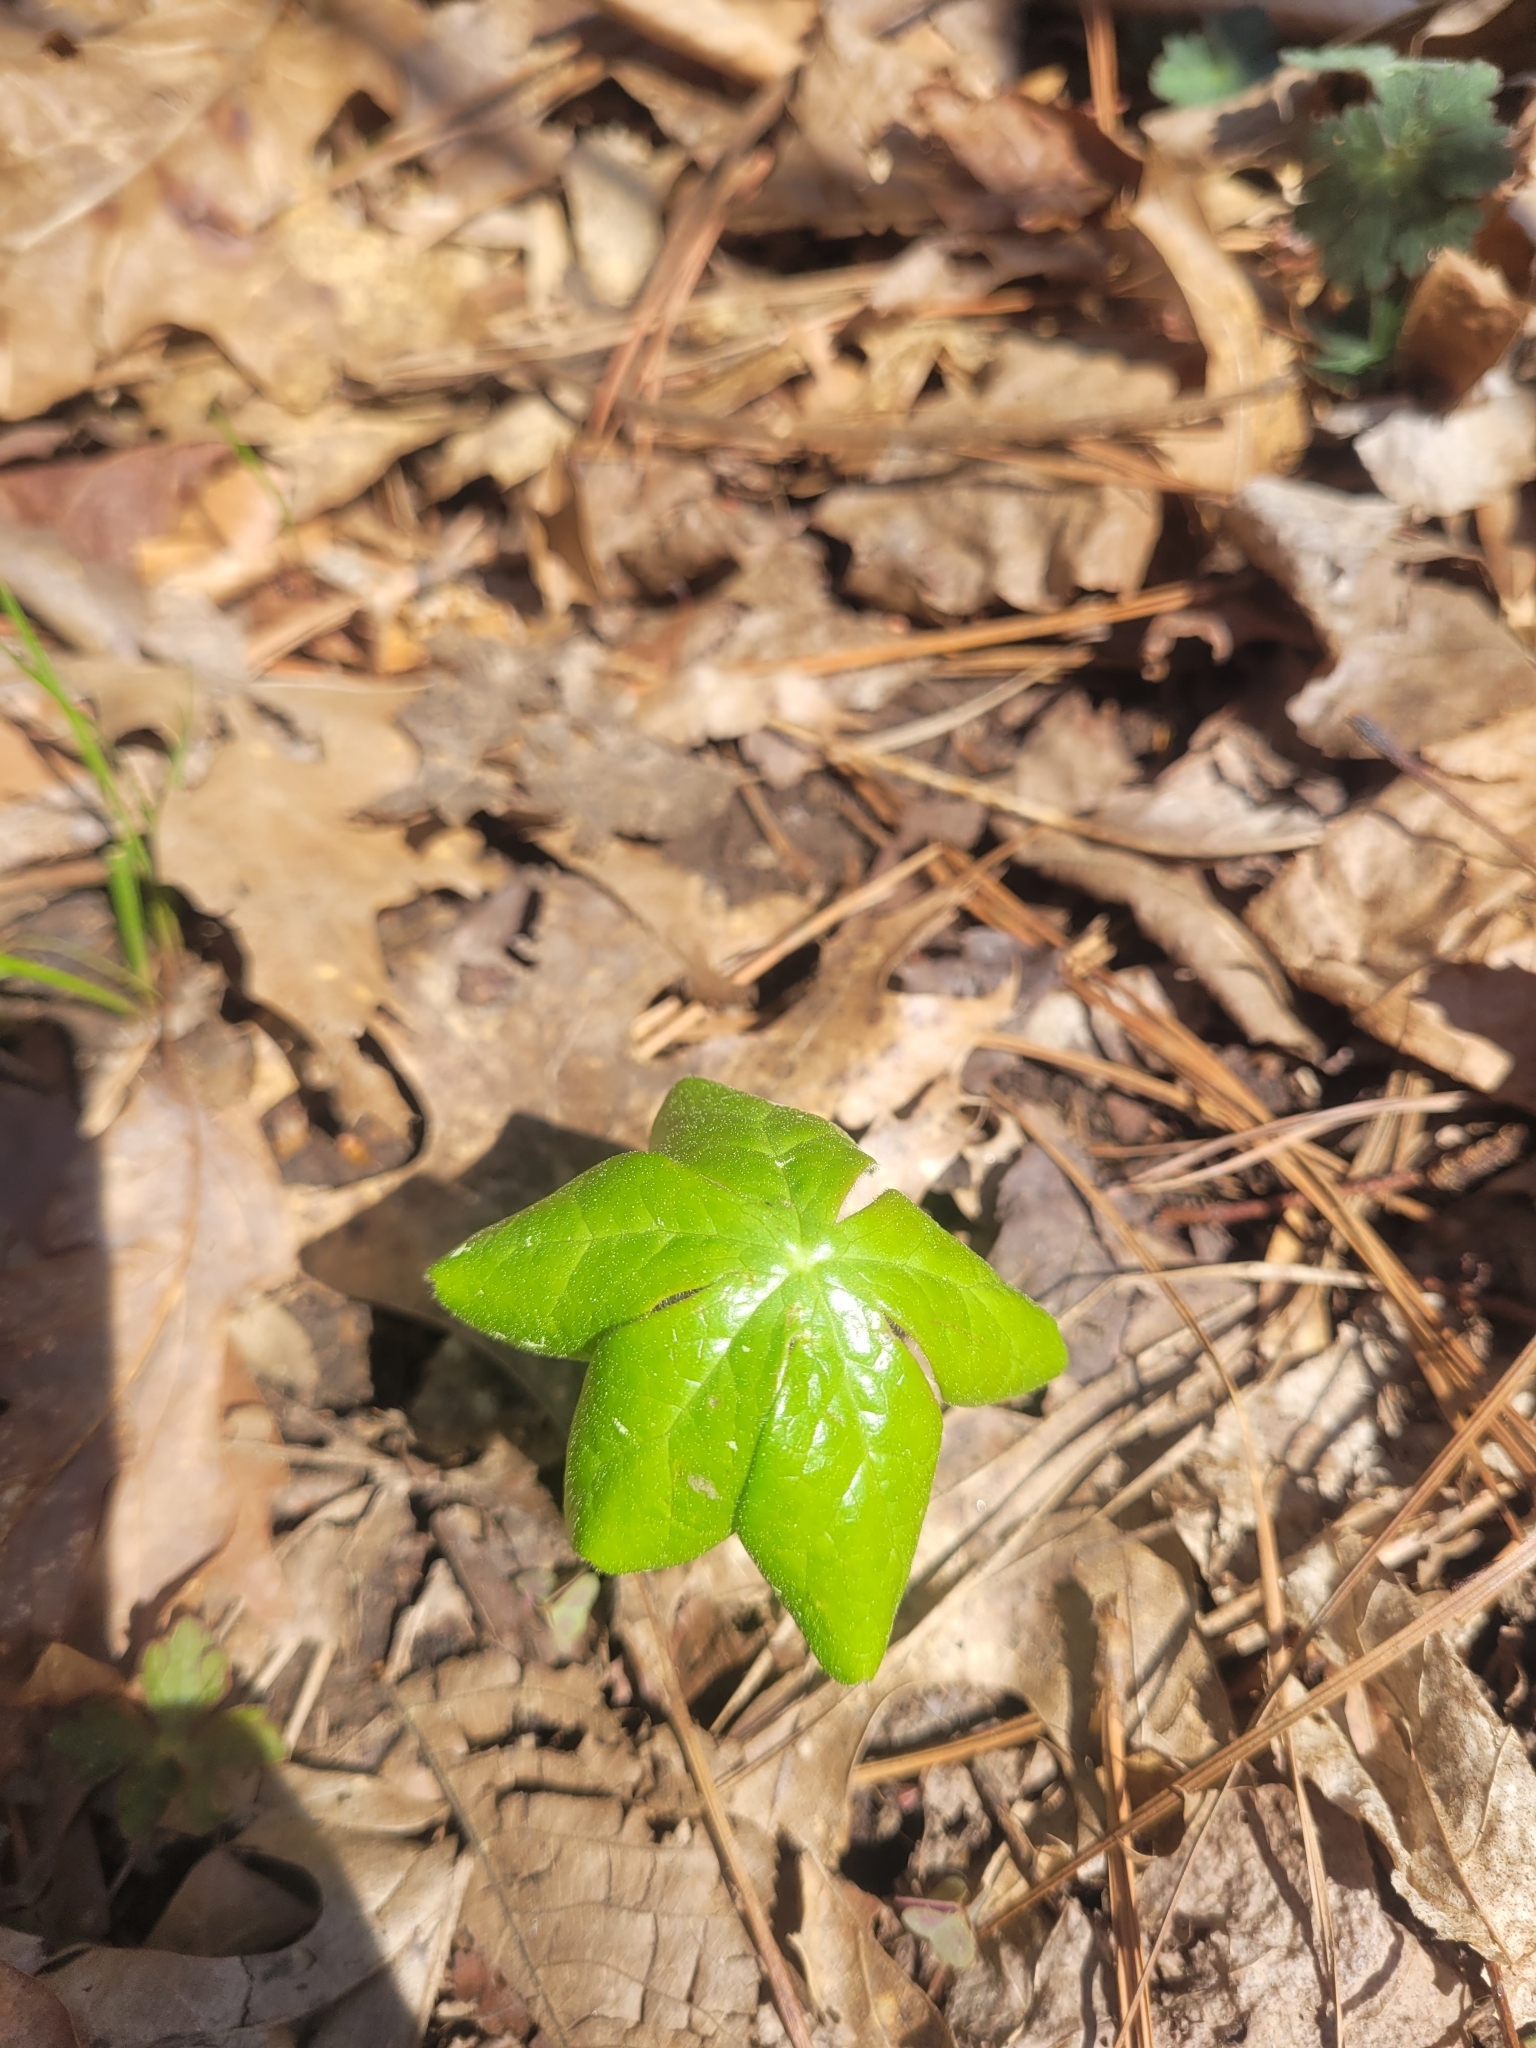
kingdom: Plantae
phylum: Tracheophyta
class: Magnoliopsida
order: Ranunculales
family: Berberidaceae
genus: Podophyllum
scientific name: Podophyllum peltatum
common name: Wild mandrake
